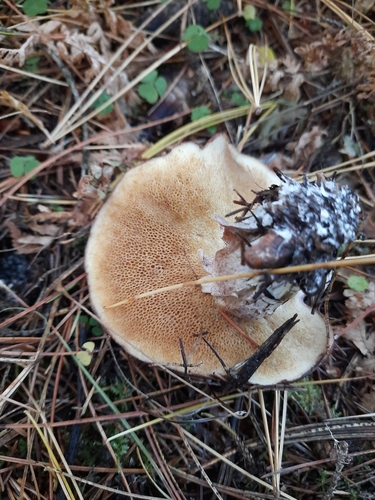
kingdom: Fungi
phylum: Basidiomycota
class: Agaricomycetes
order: Boletales
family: Suillaceae
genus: Suillus
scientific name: Suillus placidus
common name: Slippery white bolete
